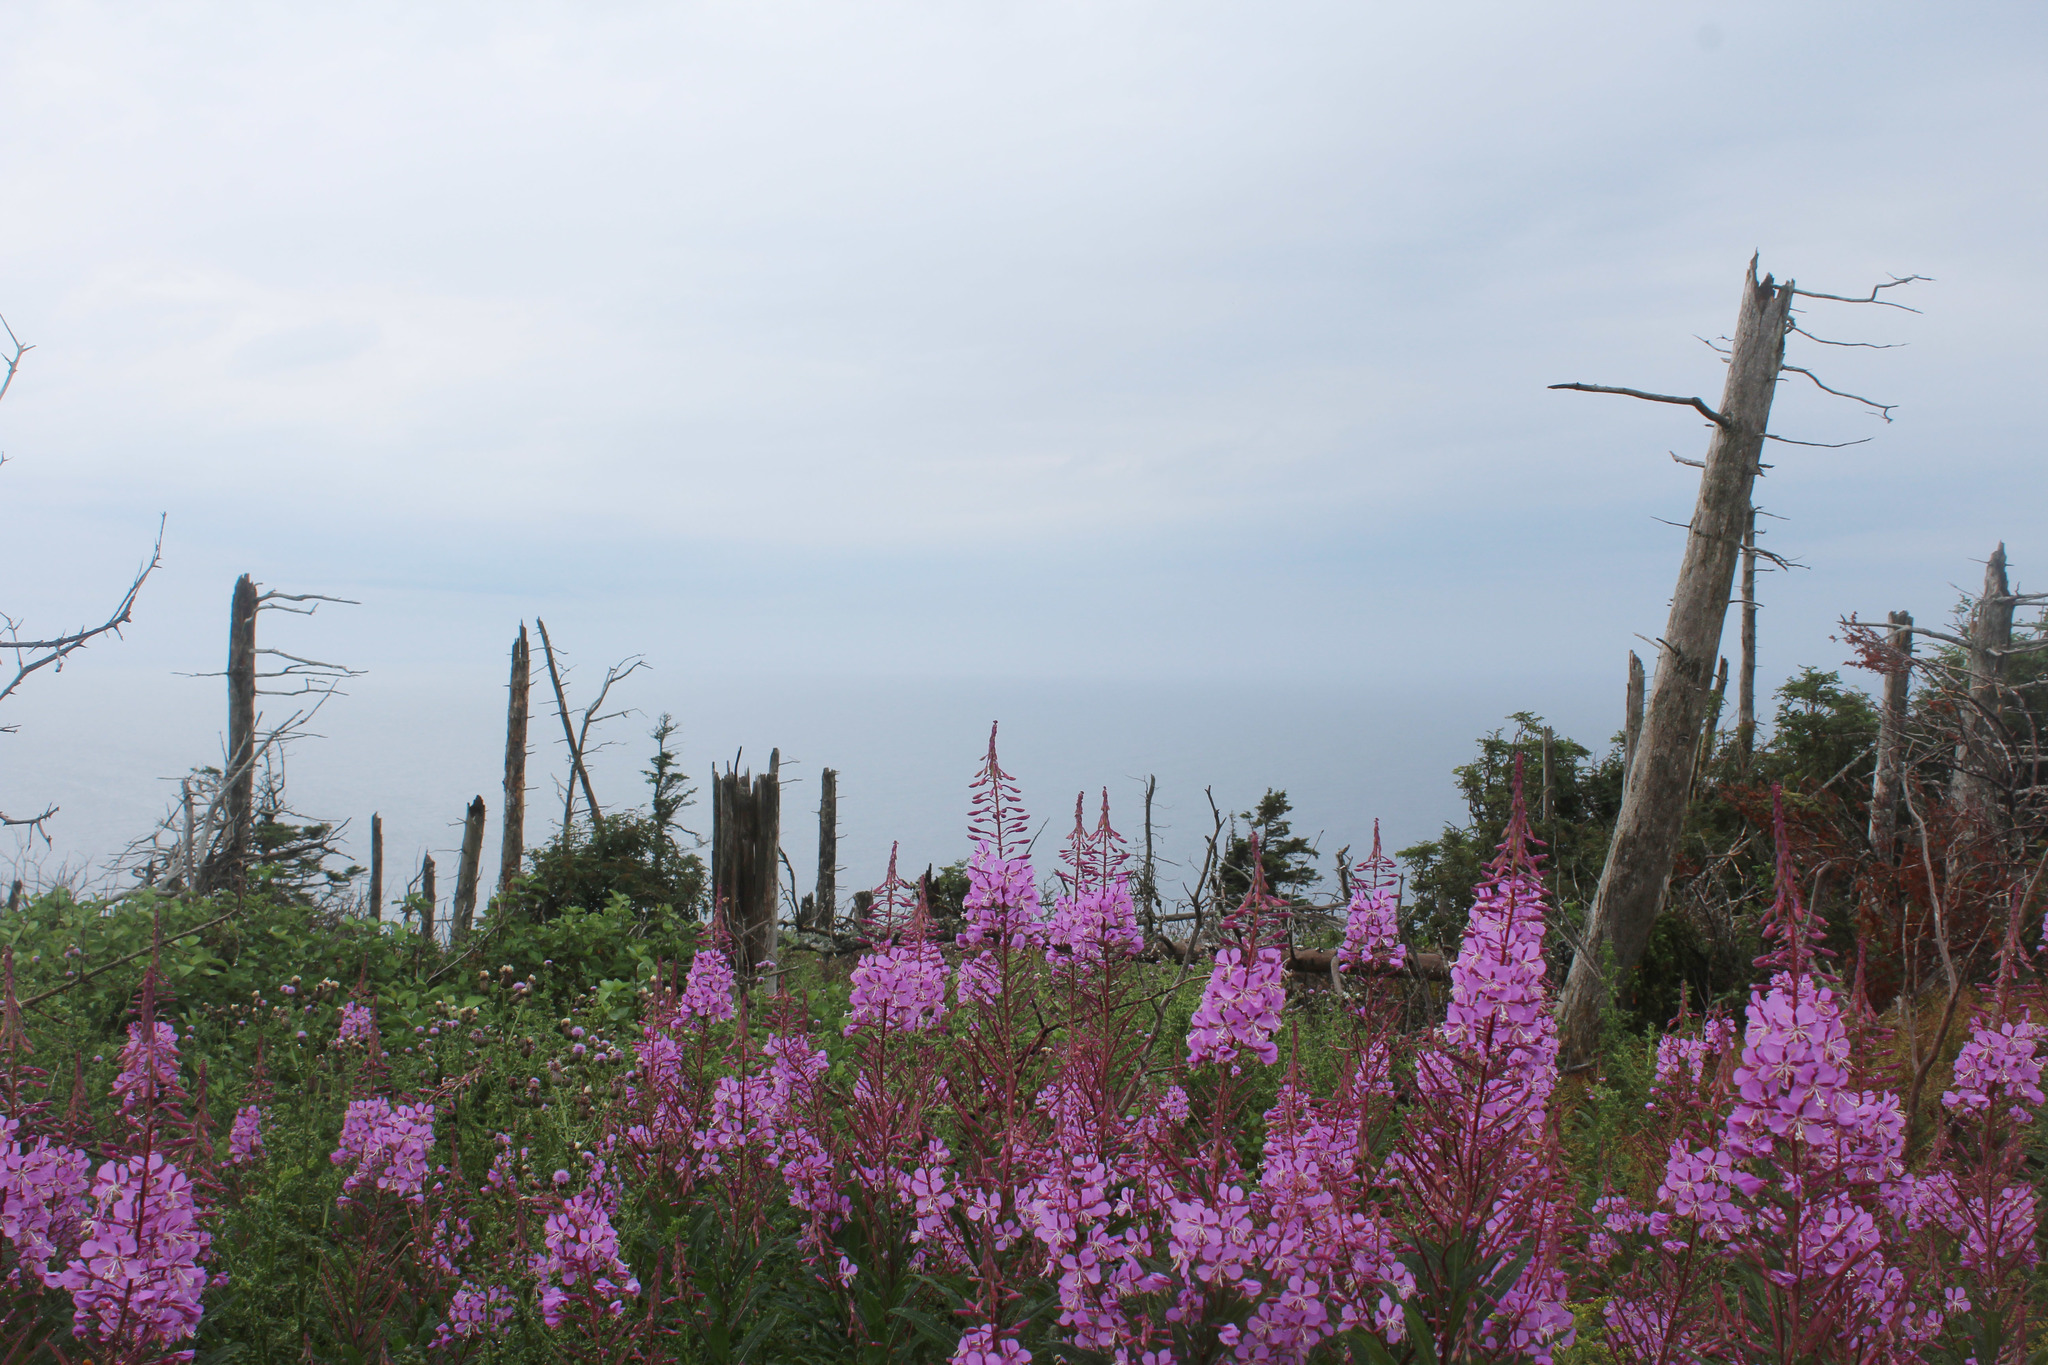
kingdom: Plantae
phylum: Tracheophyta
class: Magnoliopsida
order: Myrtales
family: Onagraceae
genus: Chamaenerion
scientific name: Chamaenerion angustifolium
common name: Fireweed
